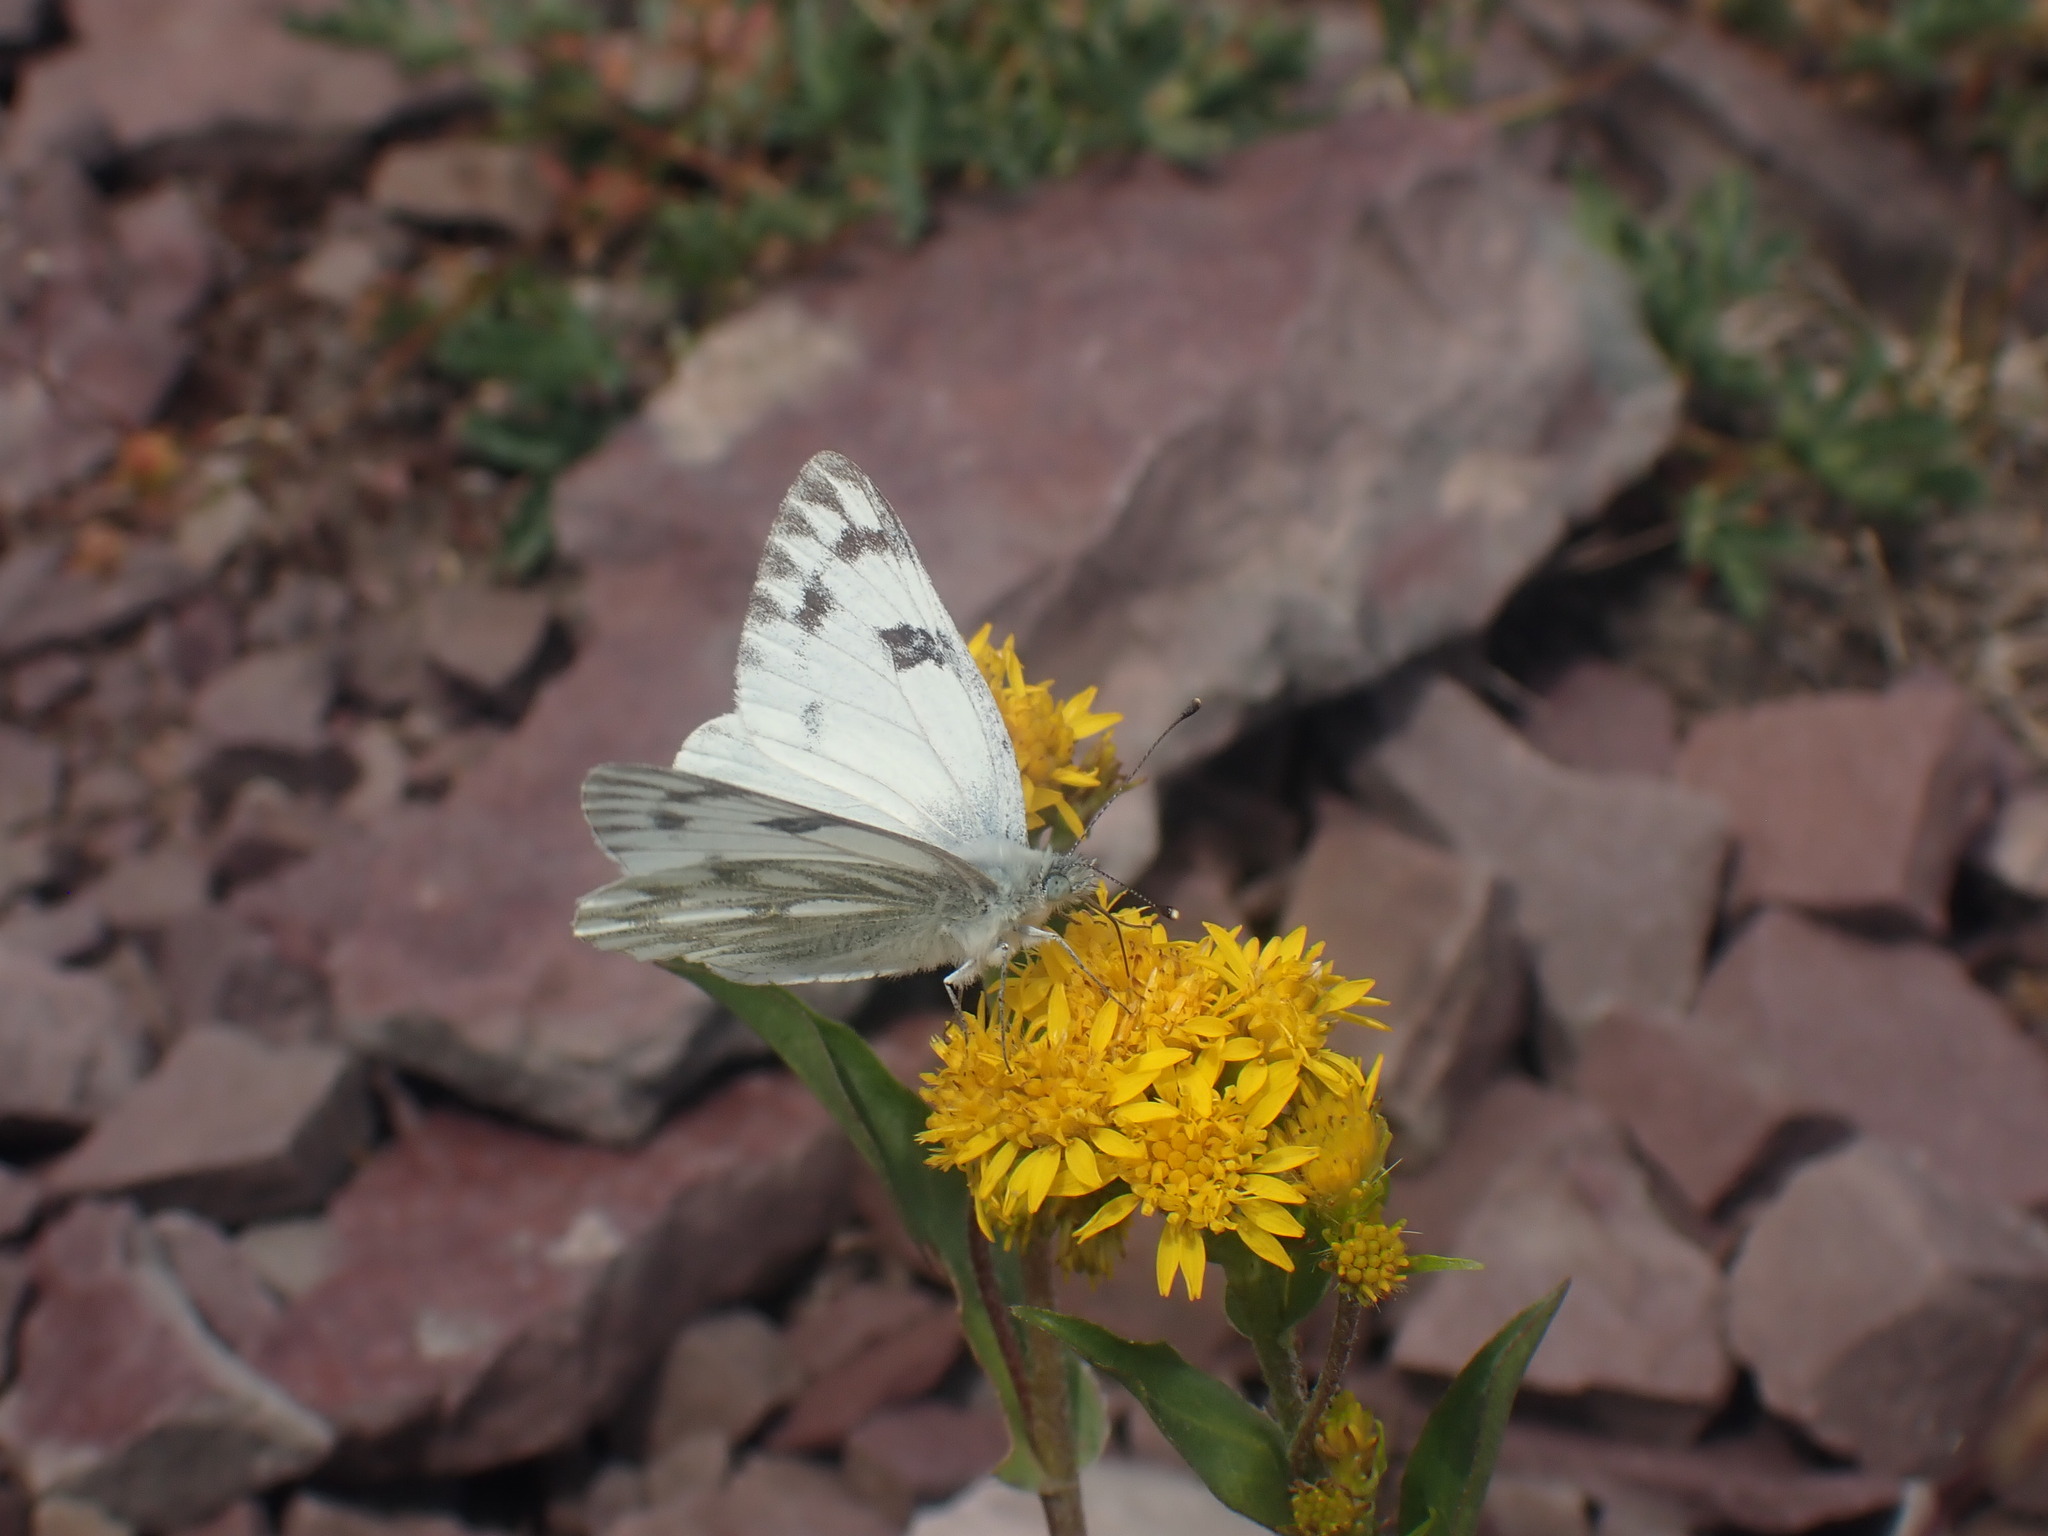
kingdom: Animalia
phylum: Arthropoda
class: Insecta
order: Lepidoptera
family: Pieridae
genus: Pontia
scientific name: Pontia occidentalis
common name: Western white
